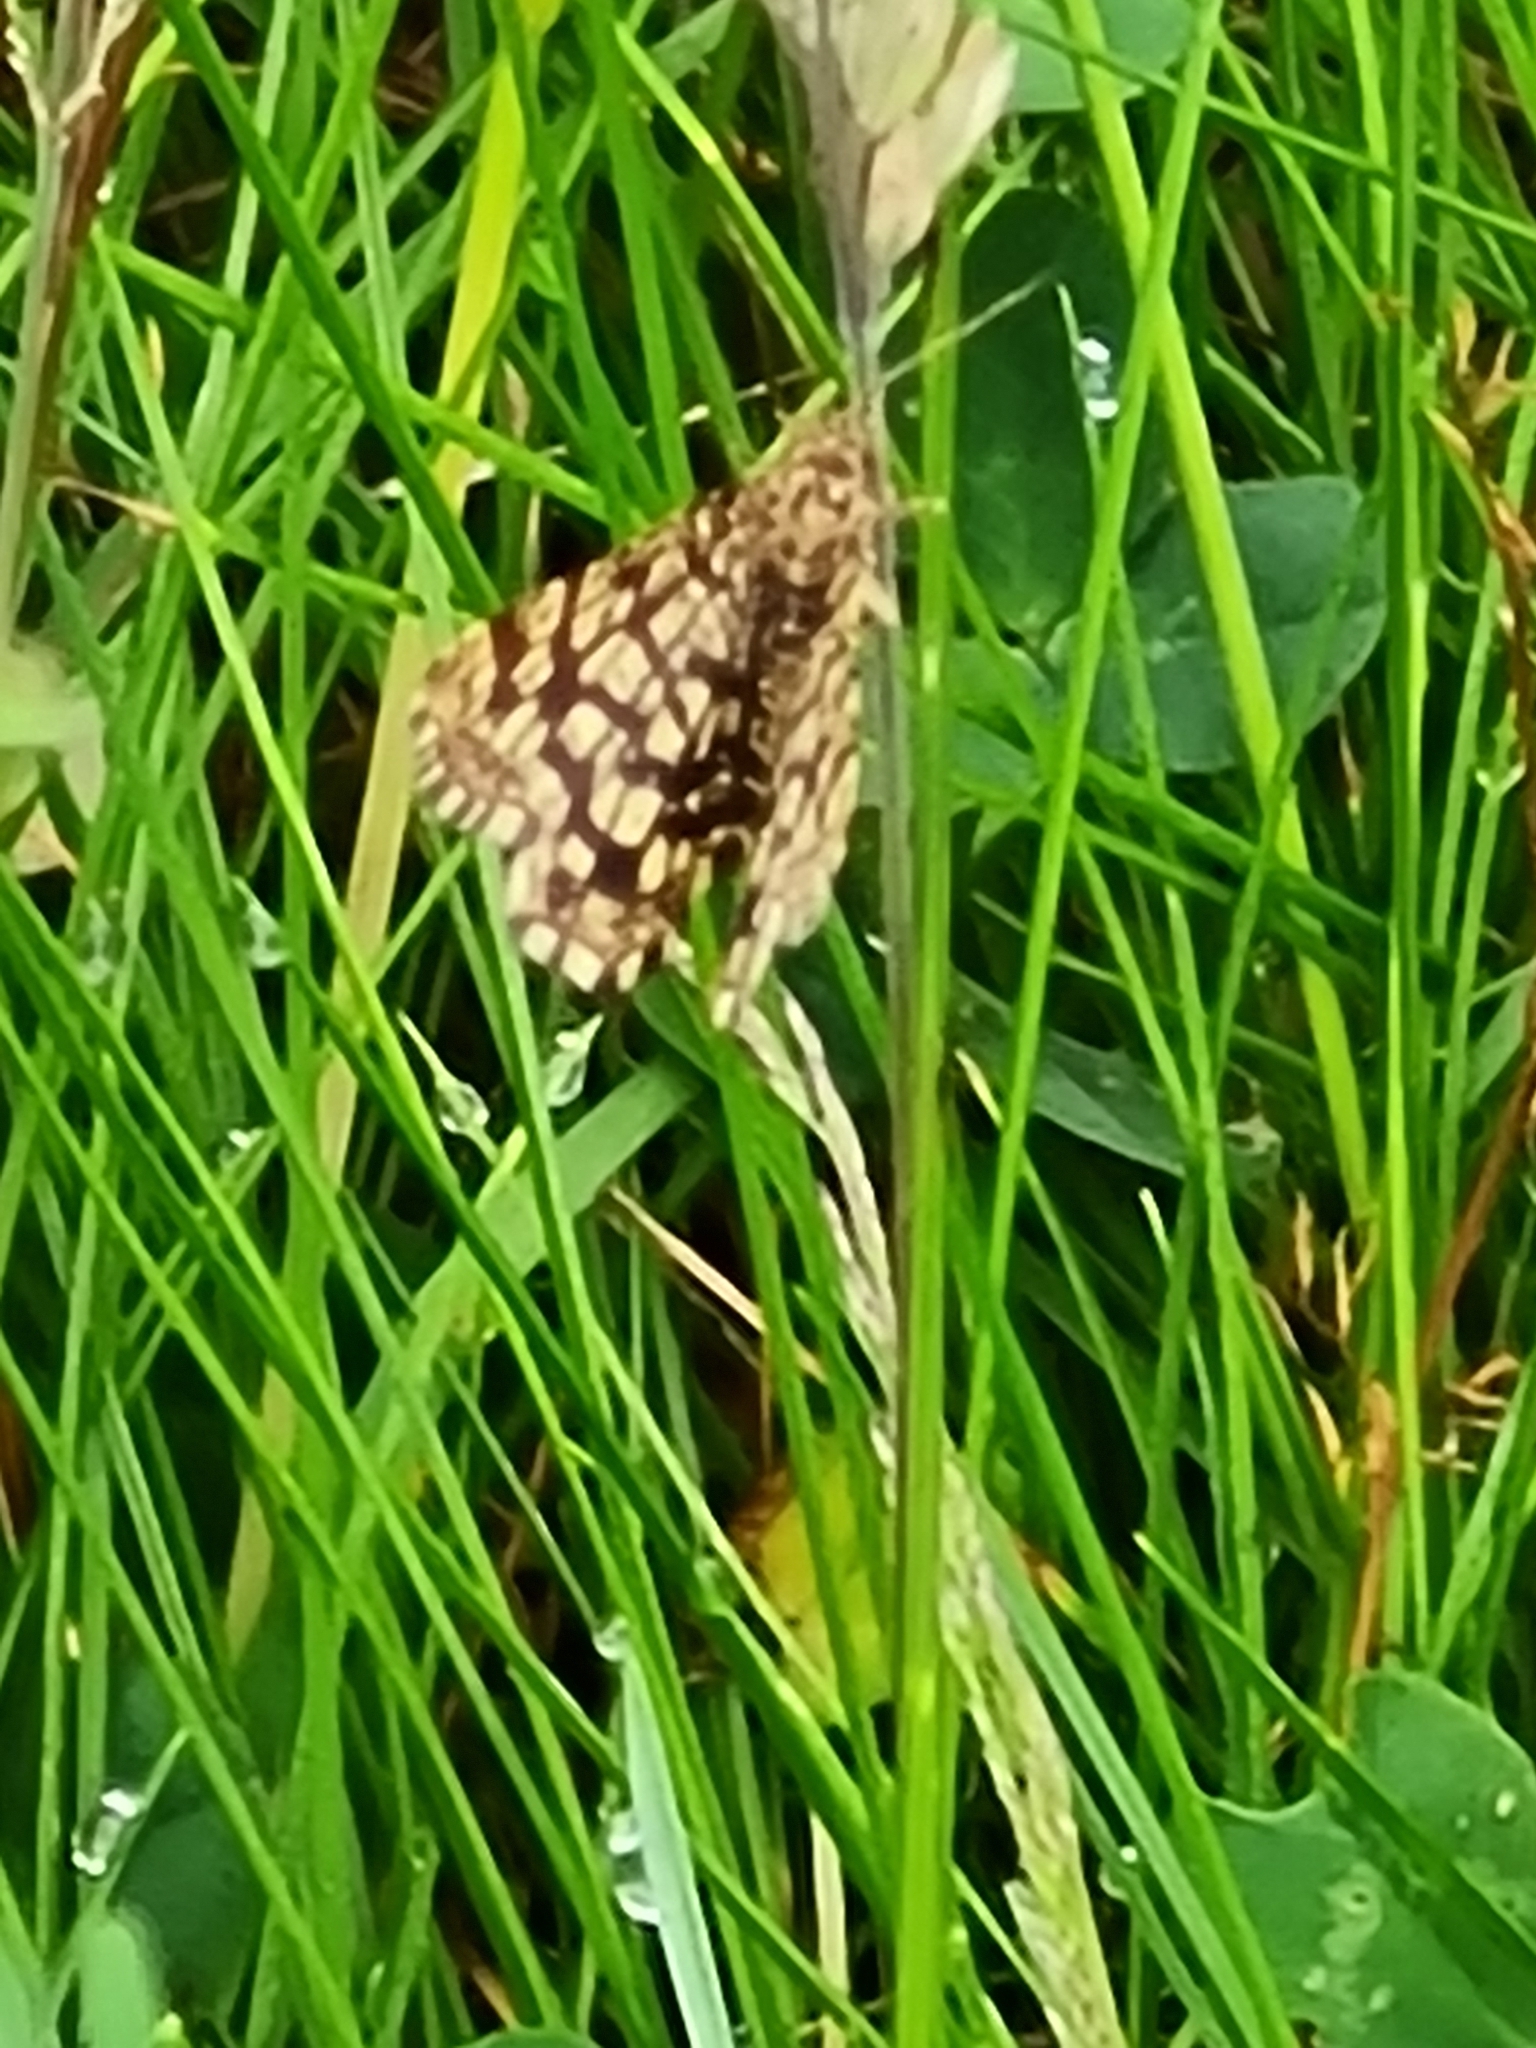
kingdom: Animalia
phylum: Arthropoda
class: Insecta
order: Lepidoptera
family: Geometridae
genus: Chiasmia
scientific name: Chiasmia clathrata
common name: Latticed heath
